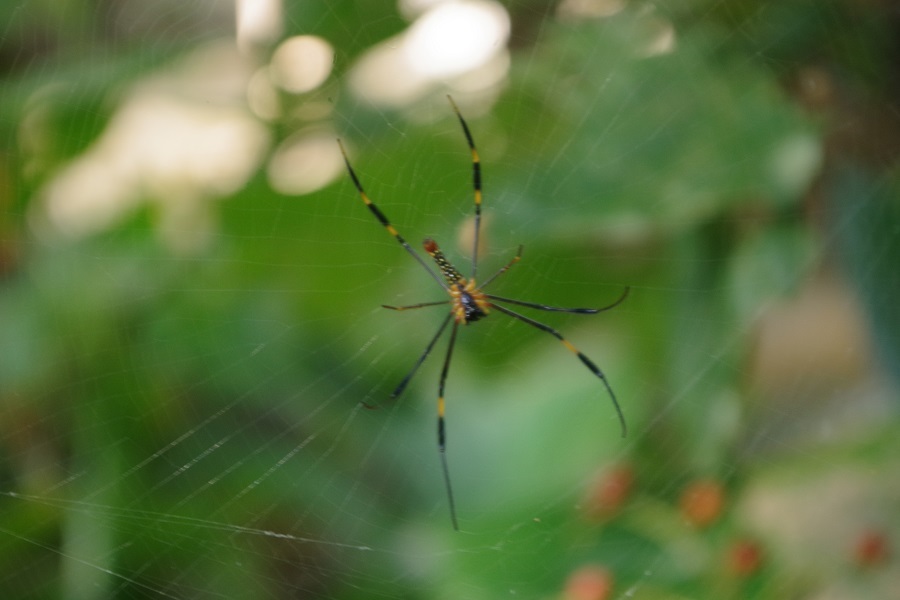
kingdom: Animalia
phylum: Arthropoda
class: Arachnida
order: Araneae
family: Araneidae
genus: Nephila
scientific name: Nephila pilipes
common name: Giant golden orb weaver
